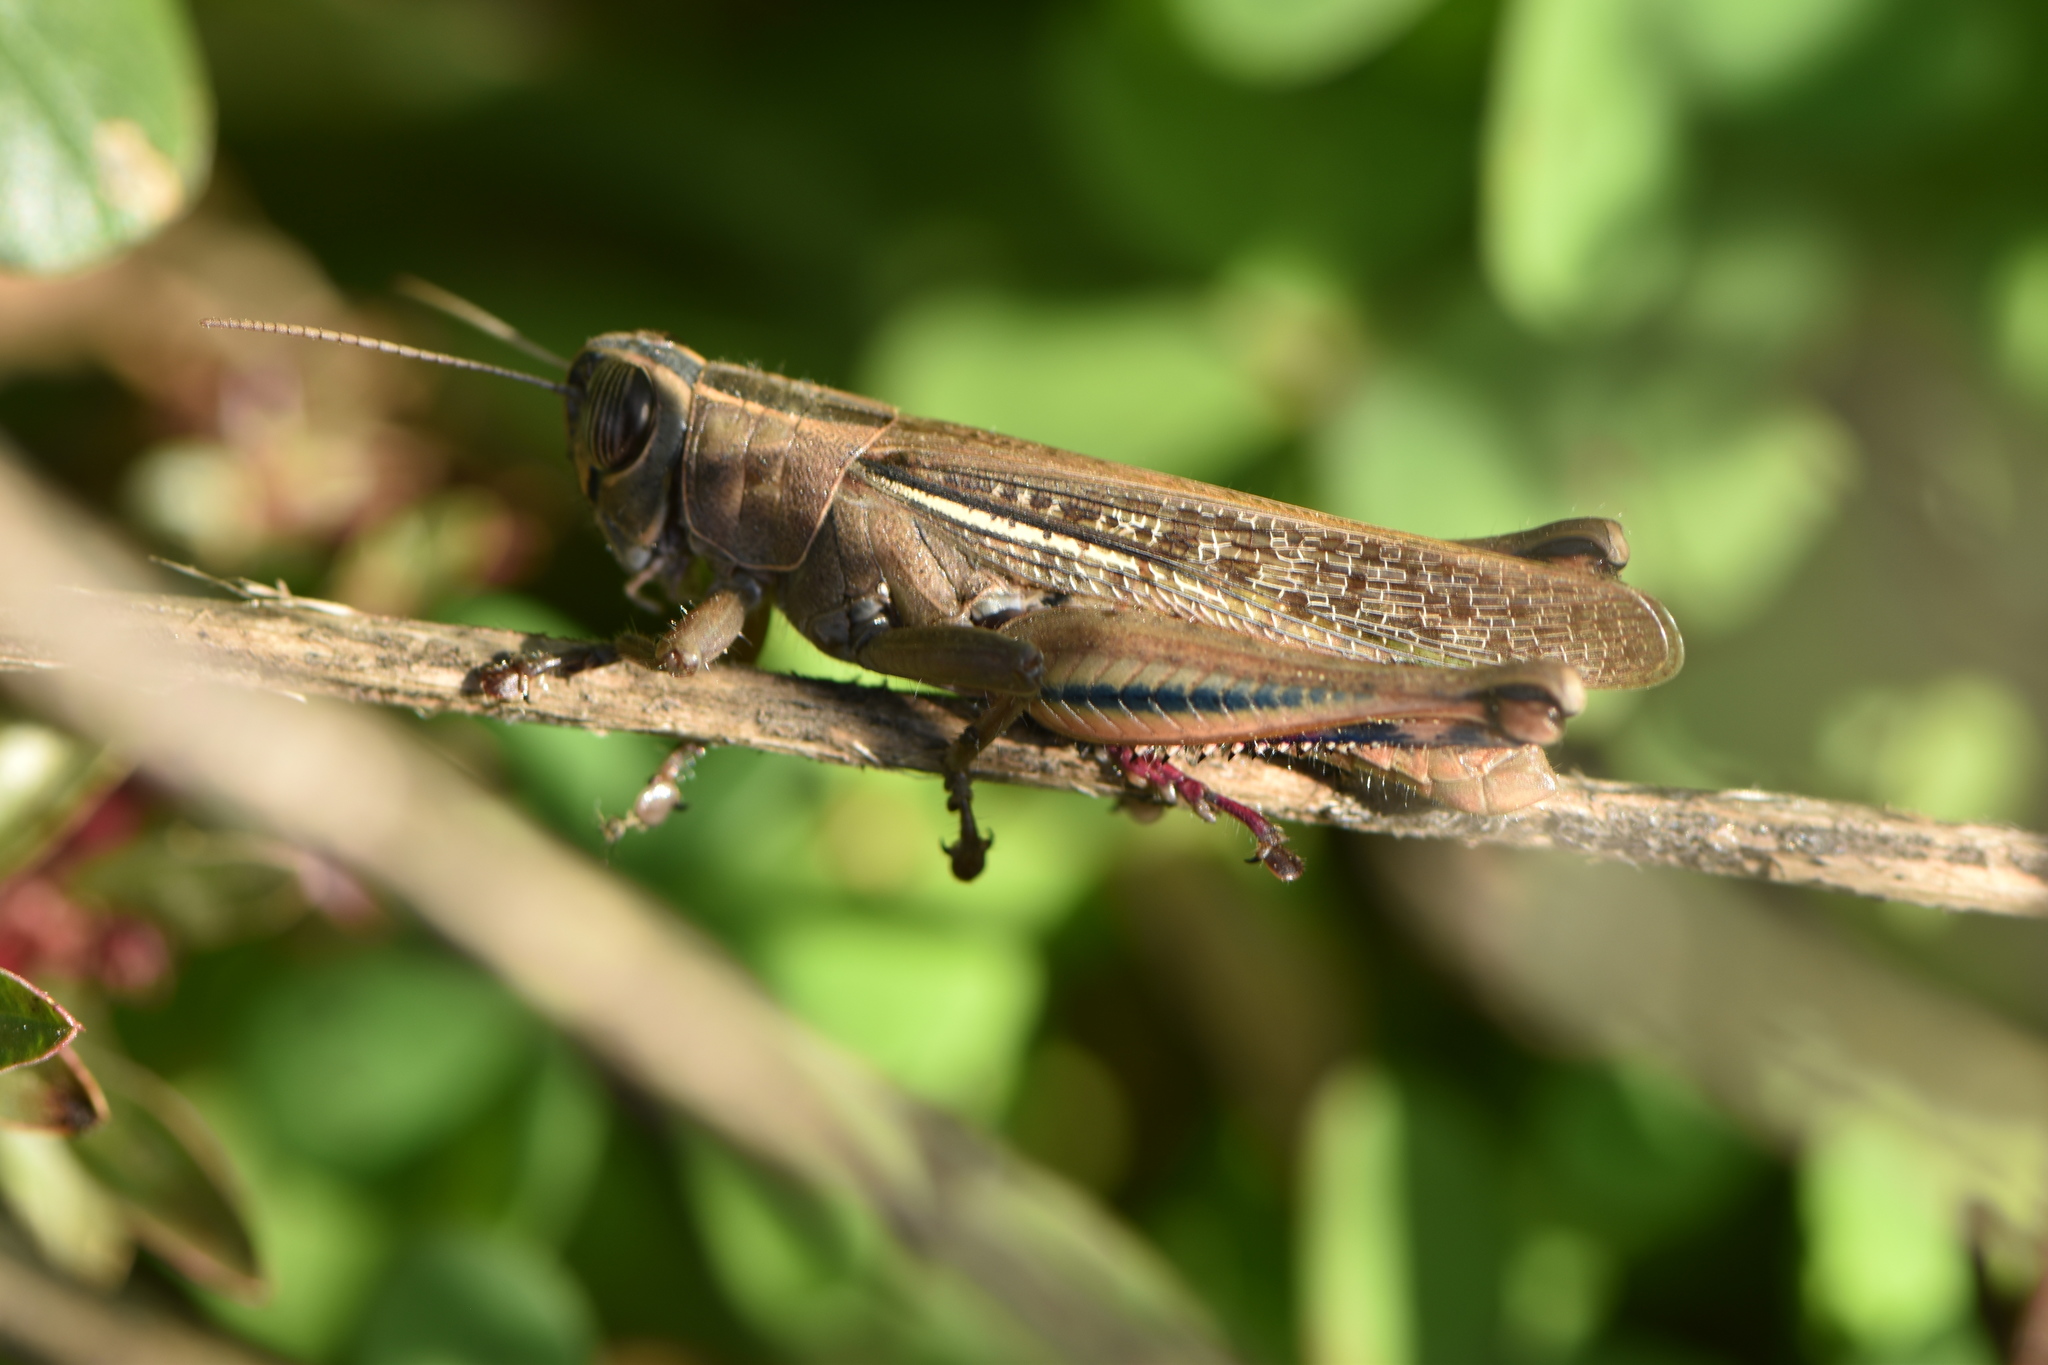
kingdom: Animalia
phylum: Arthropoda
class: Insecta
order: Orthoptera
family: Acrididae
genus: Eyprepocnemis
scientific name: Eyprepocnemis plorans
